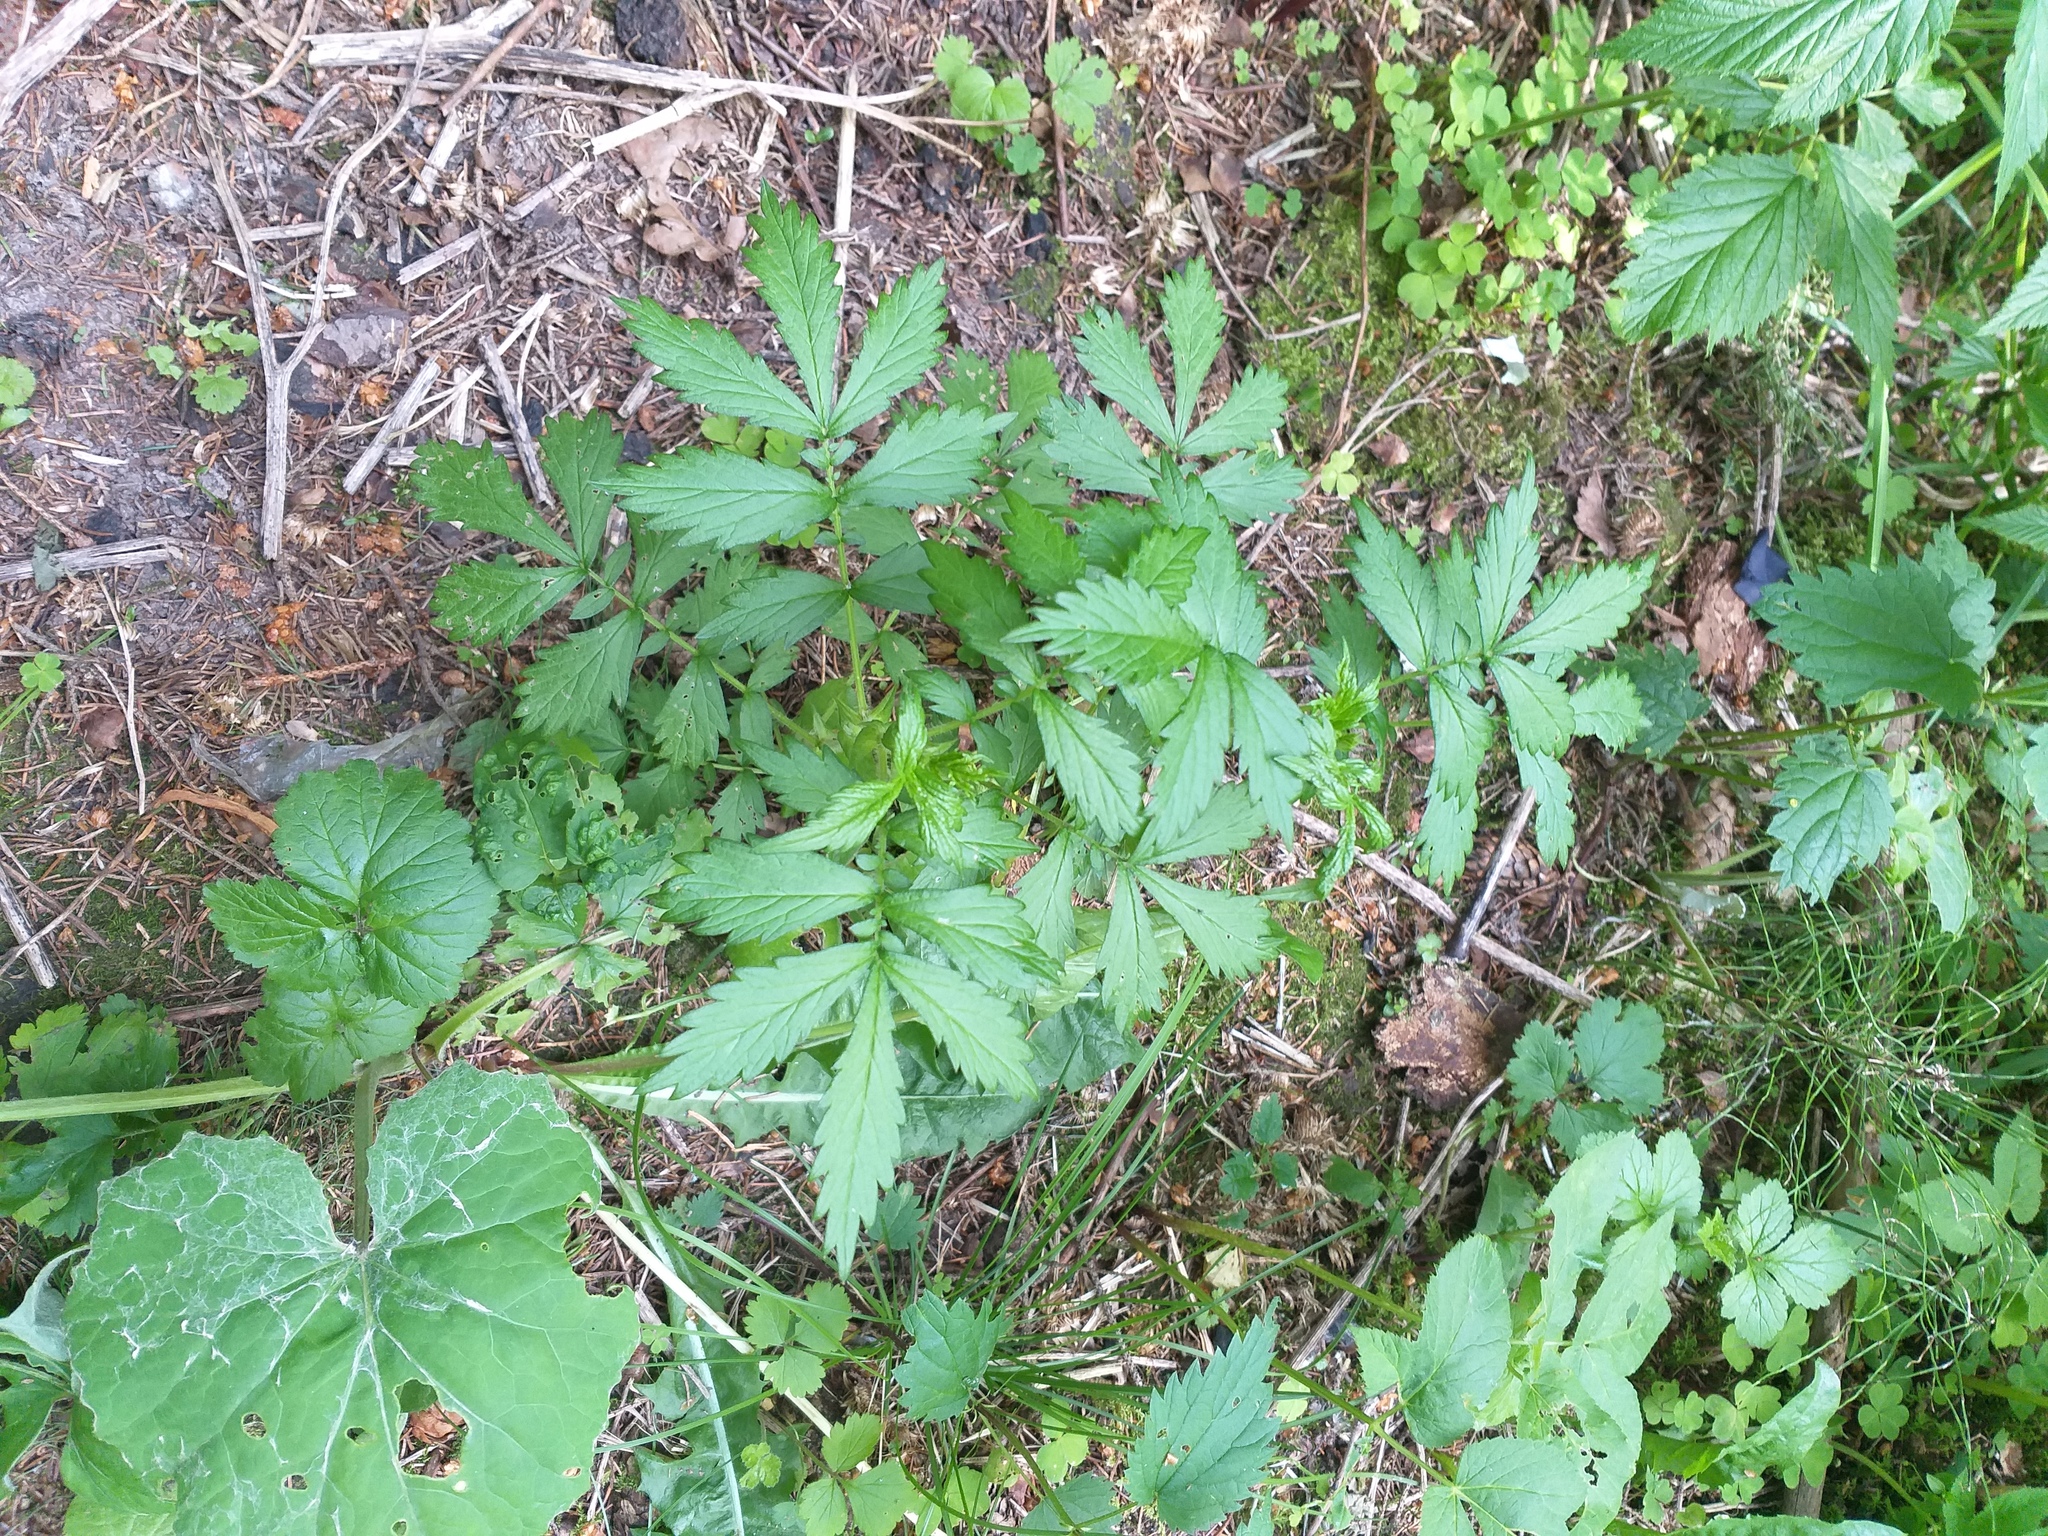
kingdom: Plantae
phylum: Tracheophyta
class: Magnoliopsida
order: Rosales
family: Rosaceae
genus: Agrimonia
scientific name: Agrimonia pilosa
